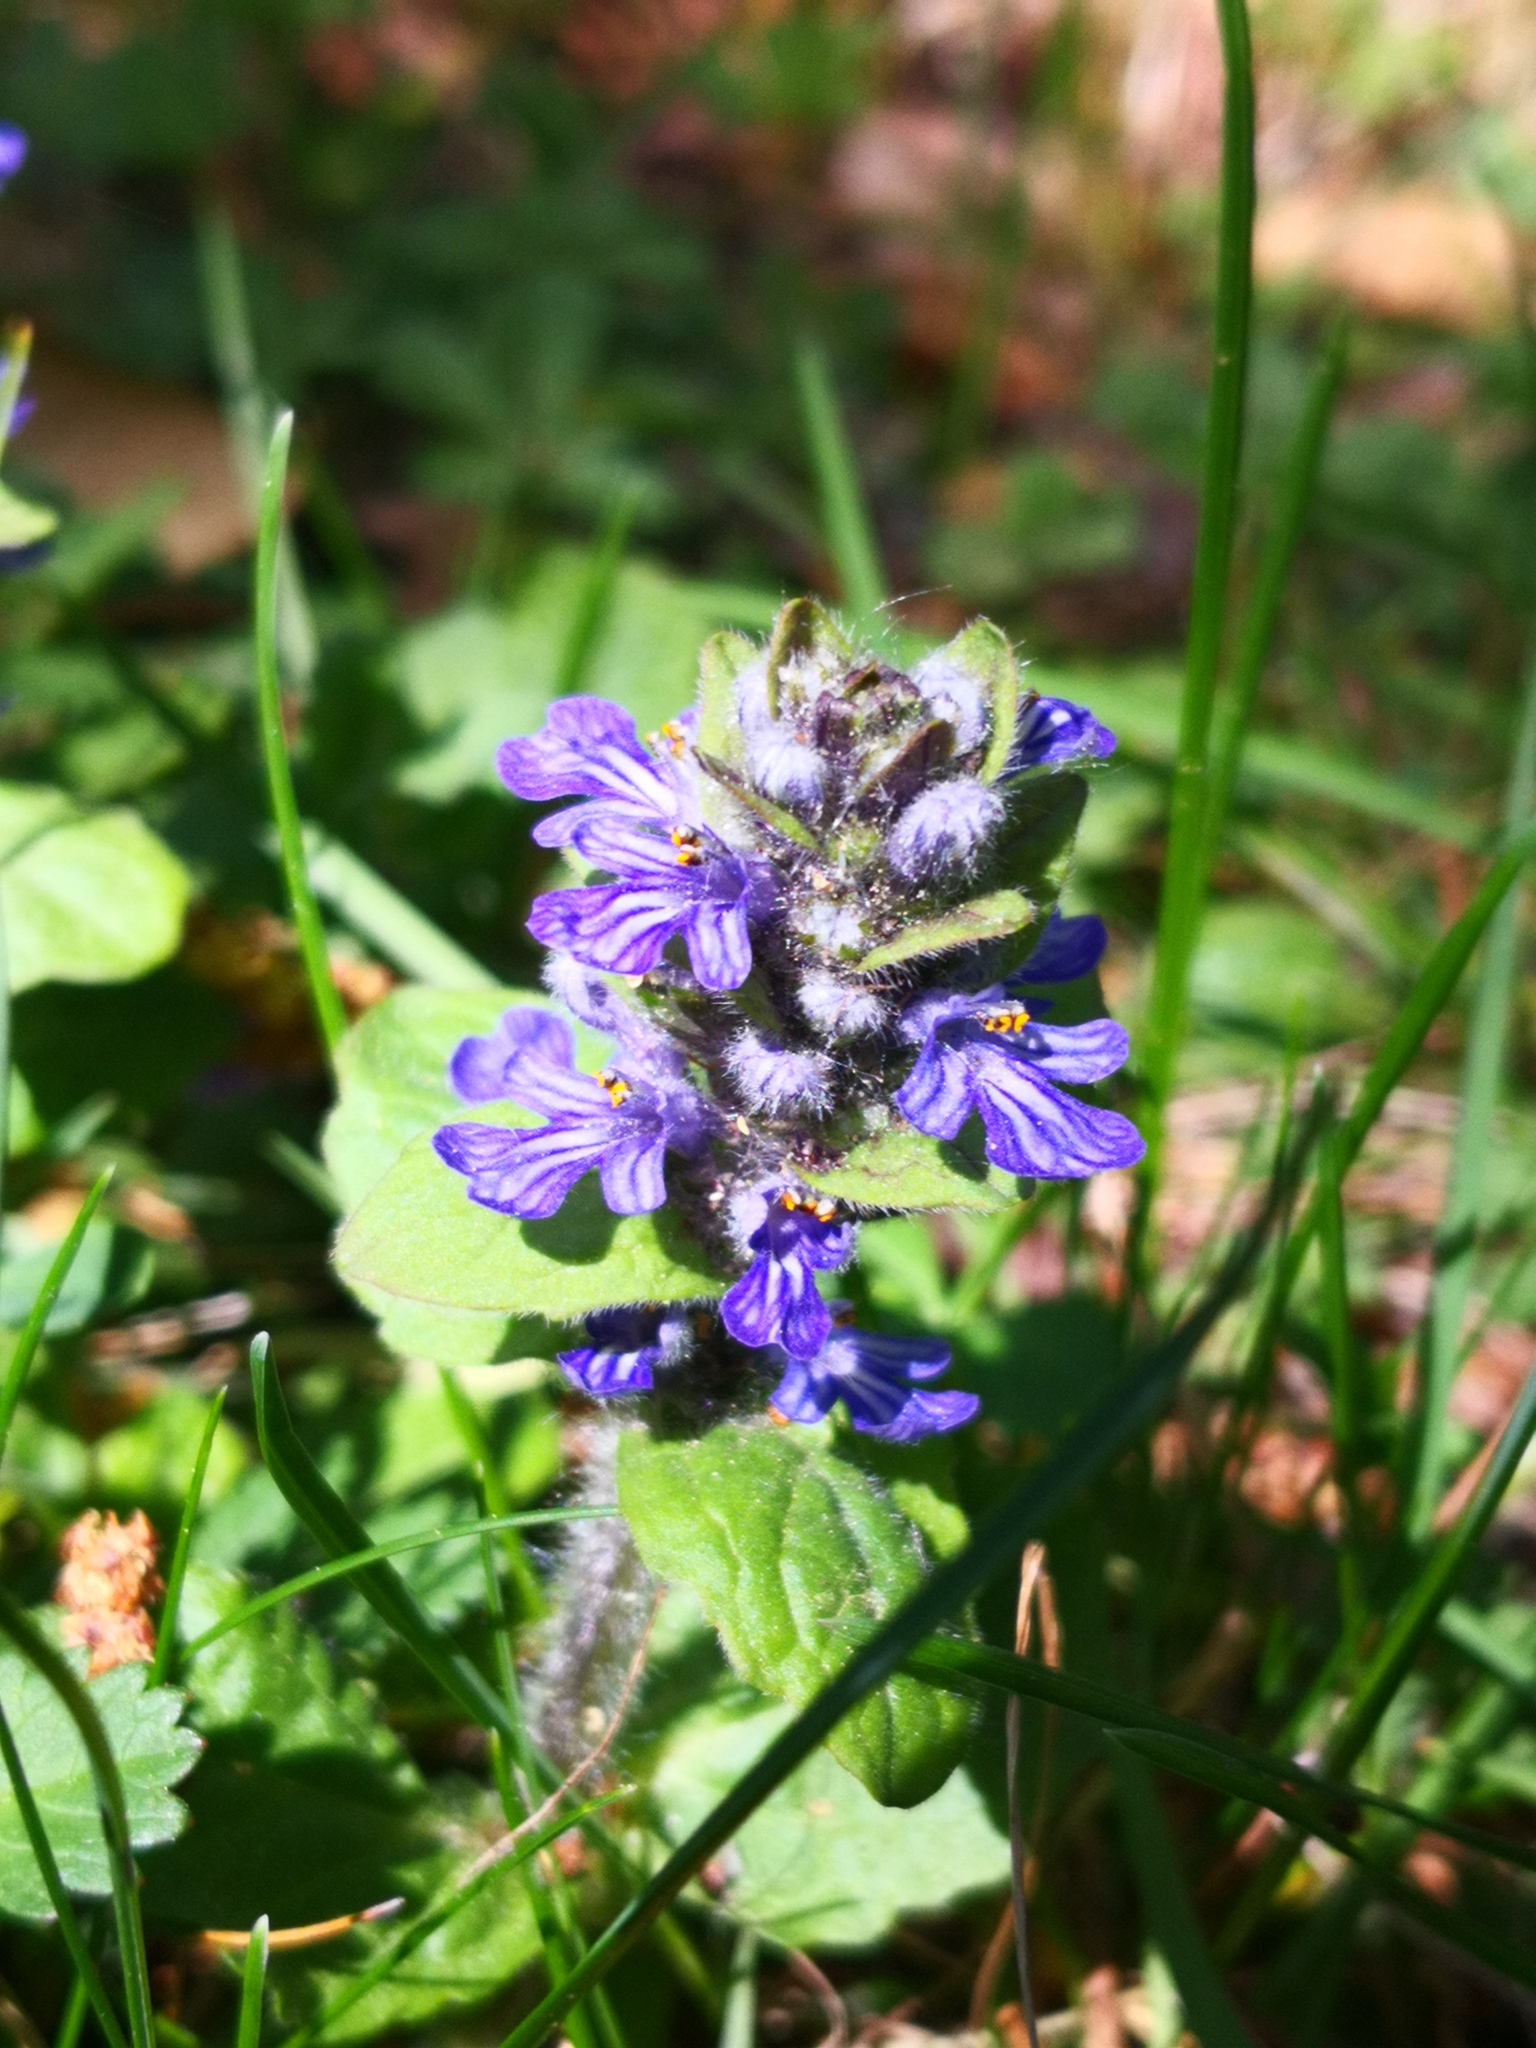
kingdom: Plantae
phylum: Tracheophyta
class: Magnoliopsida
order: Lamiales
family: Lamiaceae
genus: Ajuga
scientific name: Ajuga reptans
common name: Bugle
